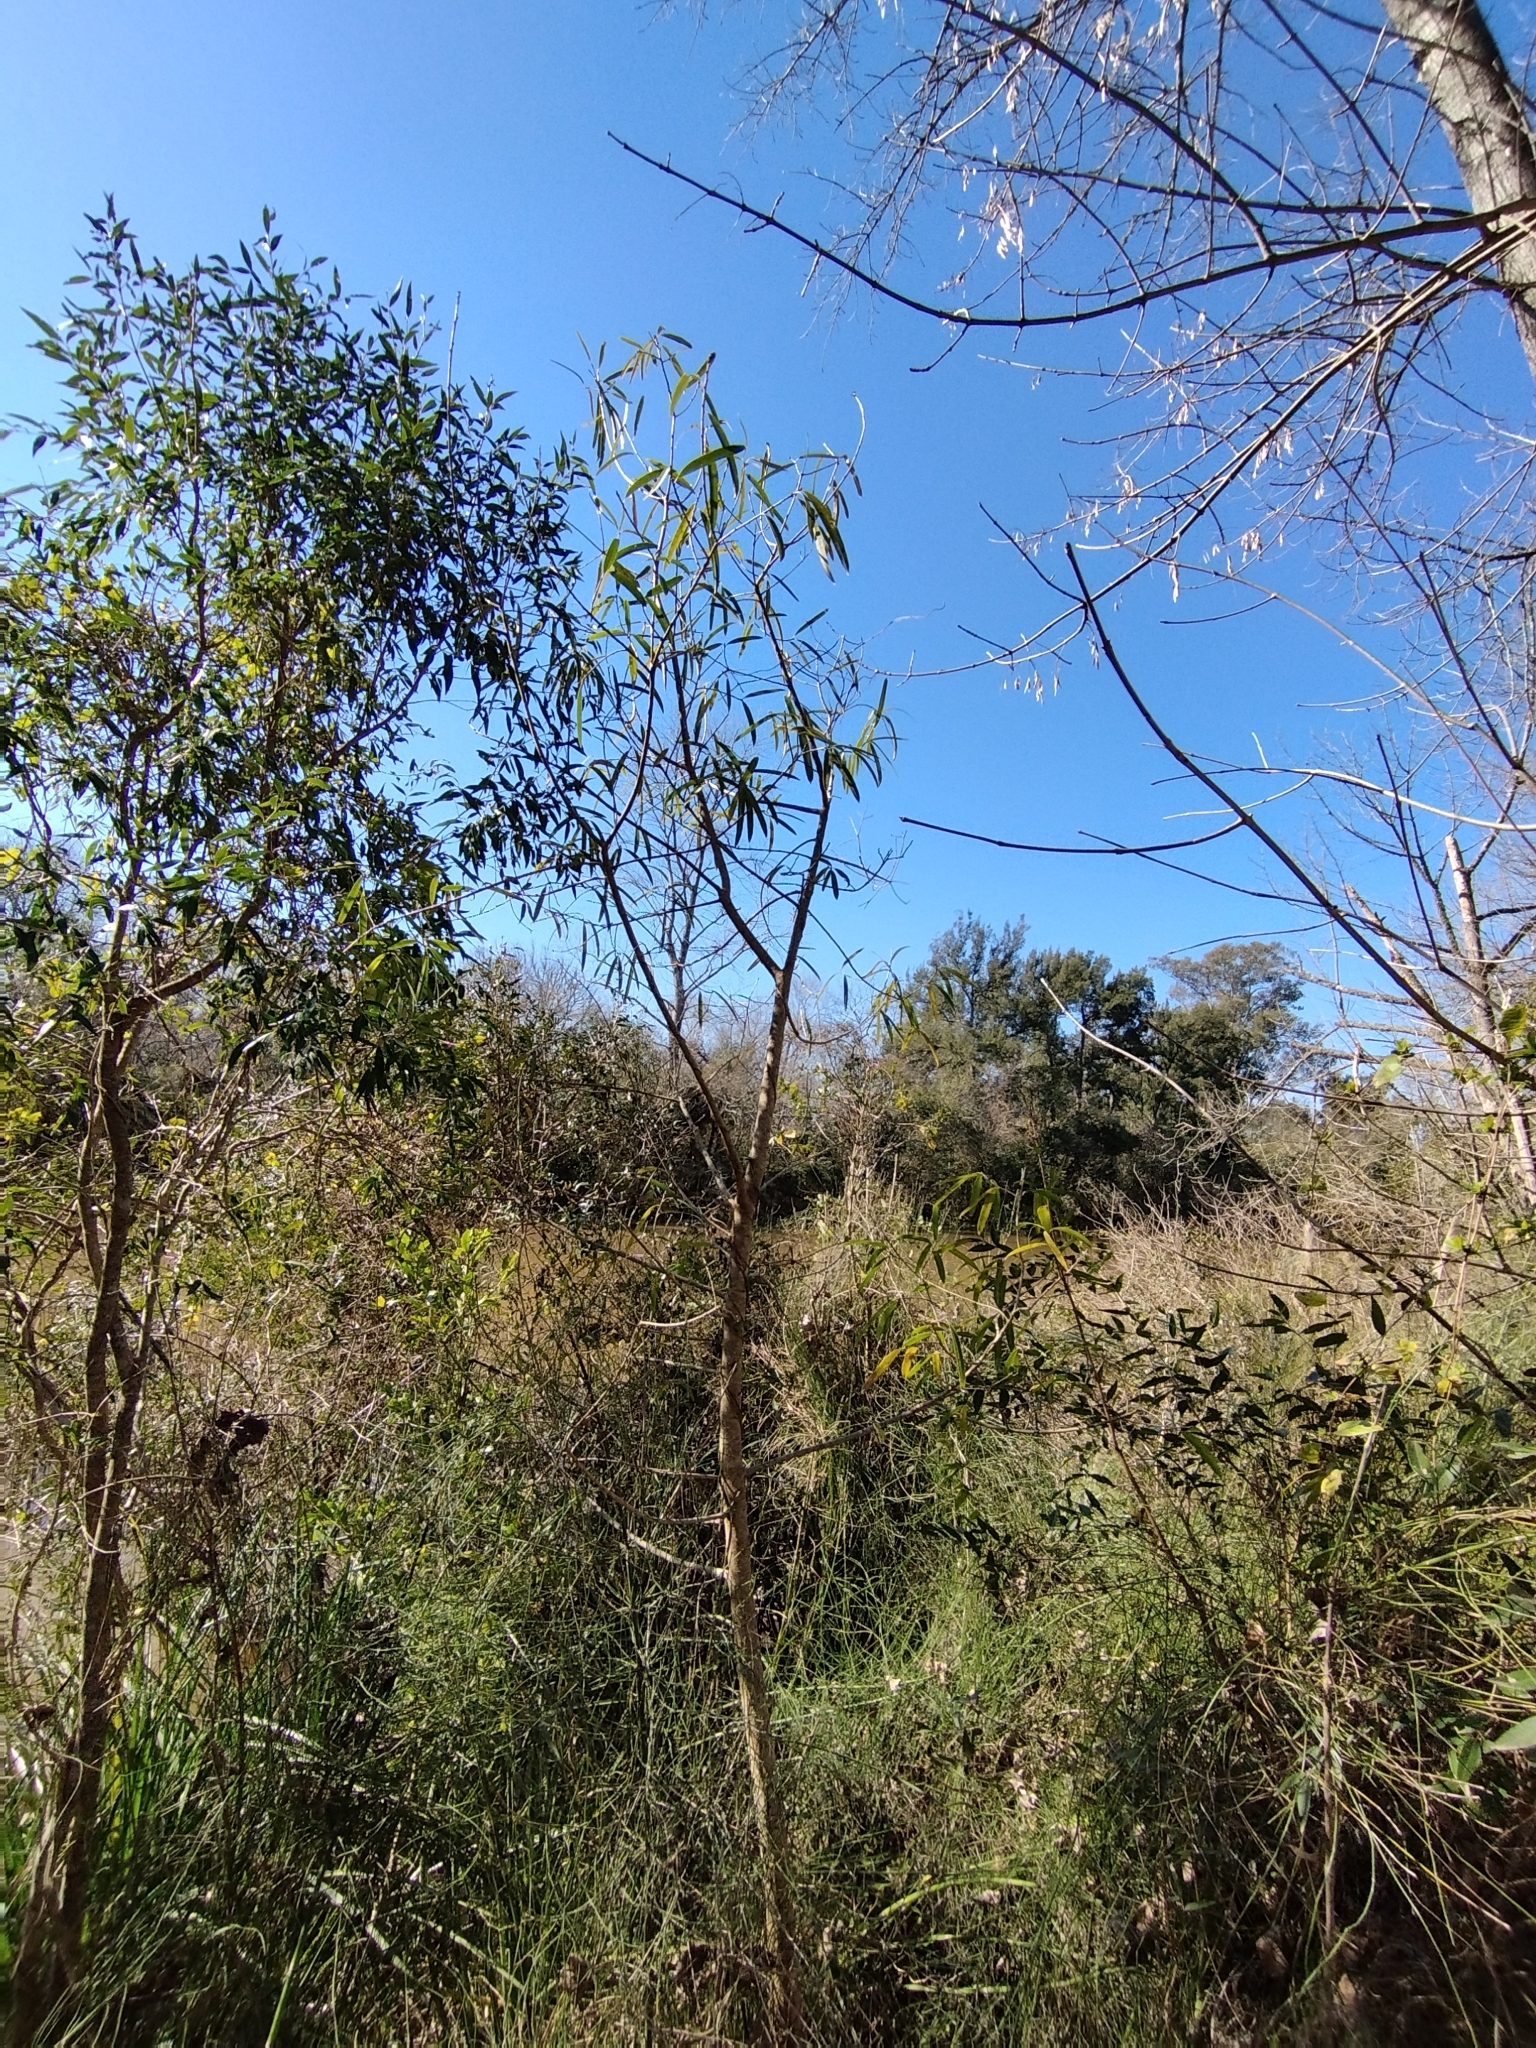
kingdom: Plantae
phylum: Tracheophyta
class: Magnoliopsida
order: Malpighiales
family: Euphorbiaceae
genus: Sapium
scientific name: Sapium haematospermum
